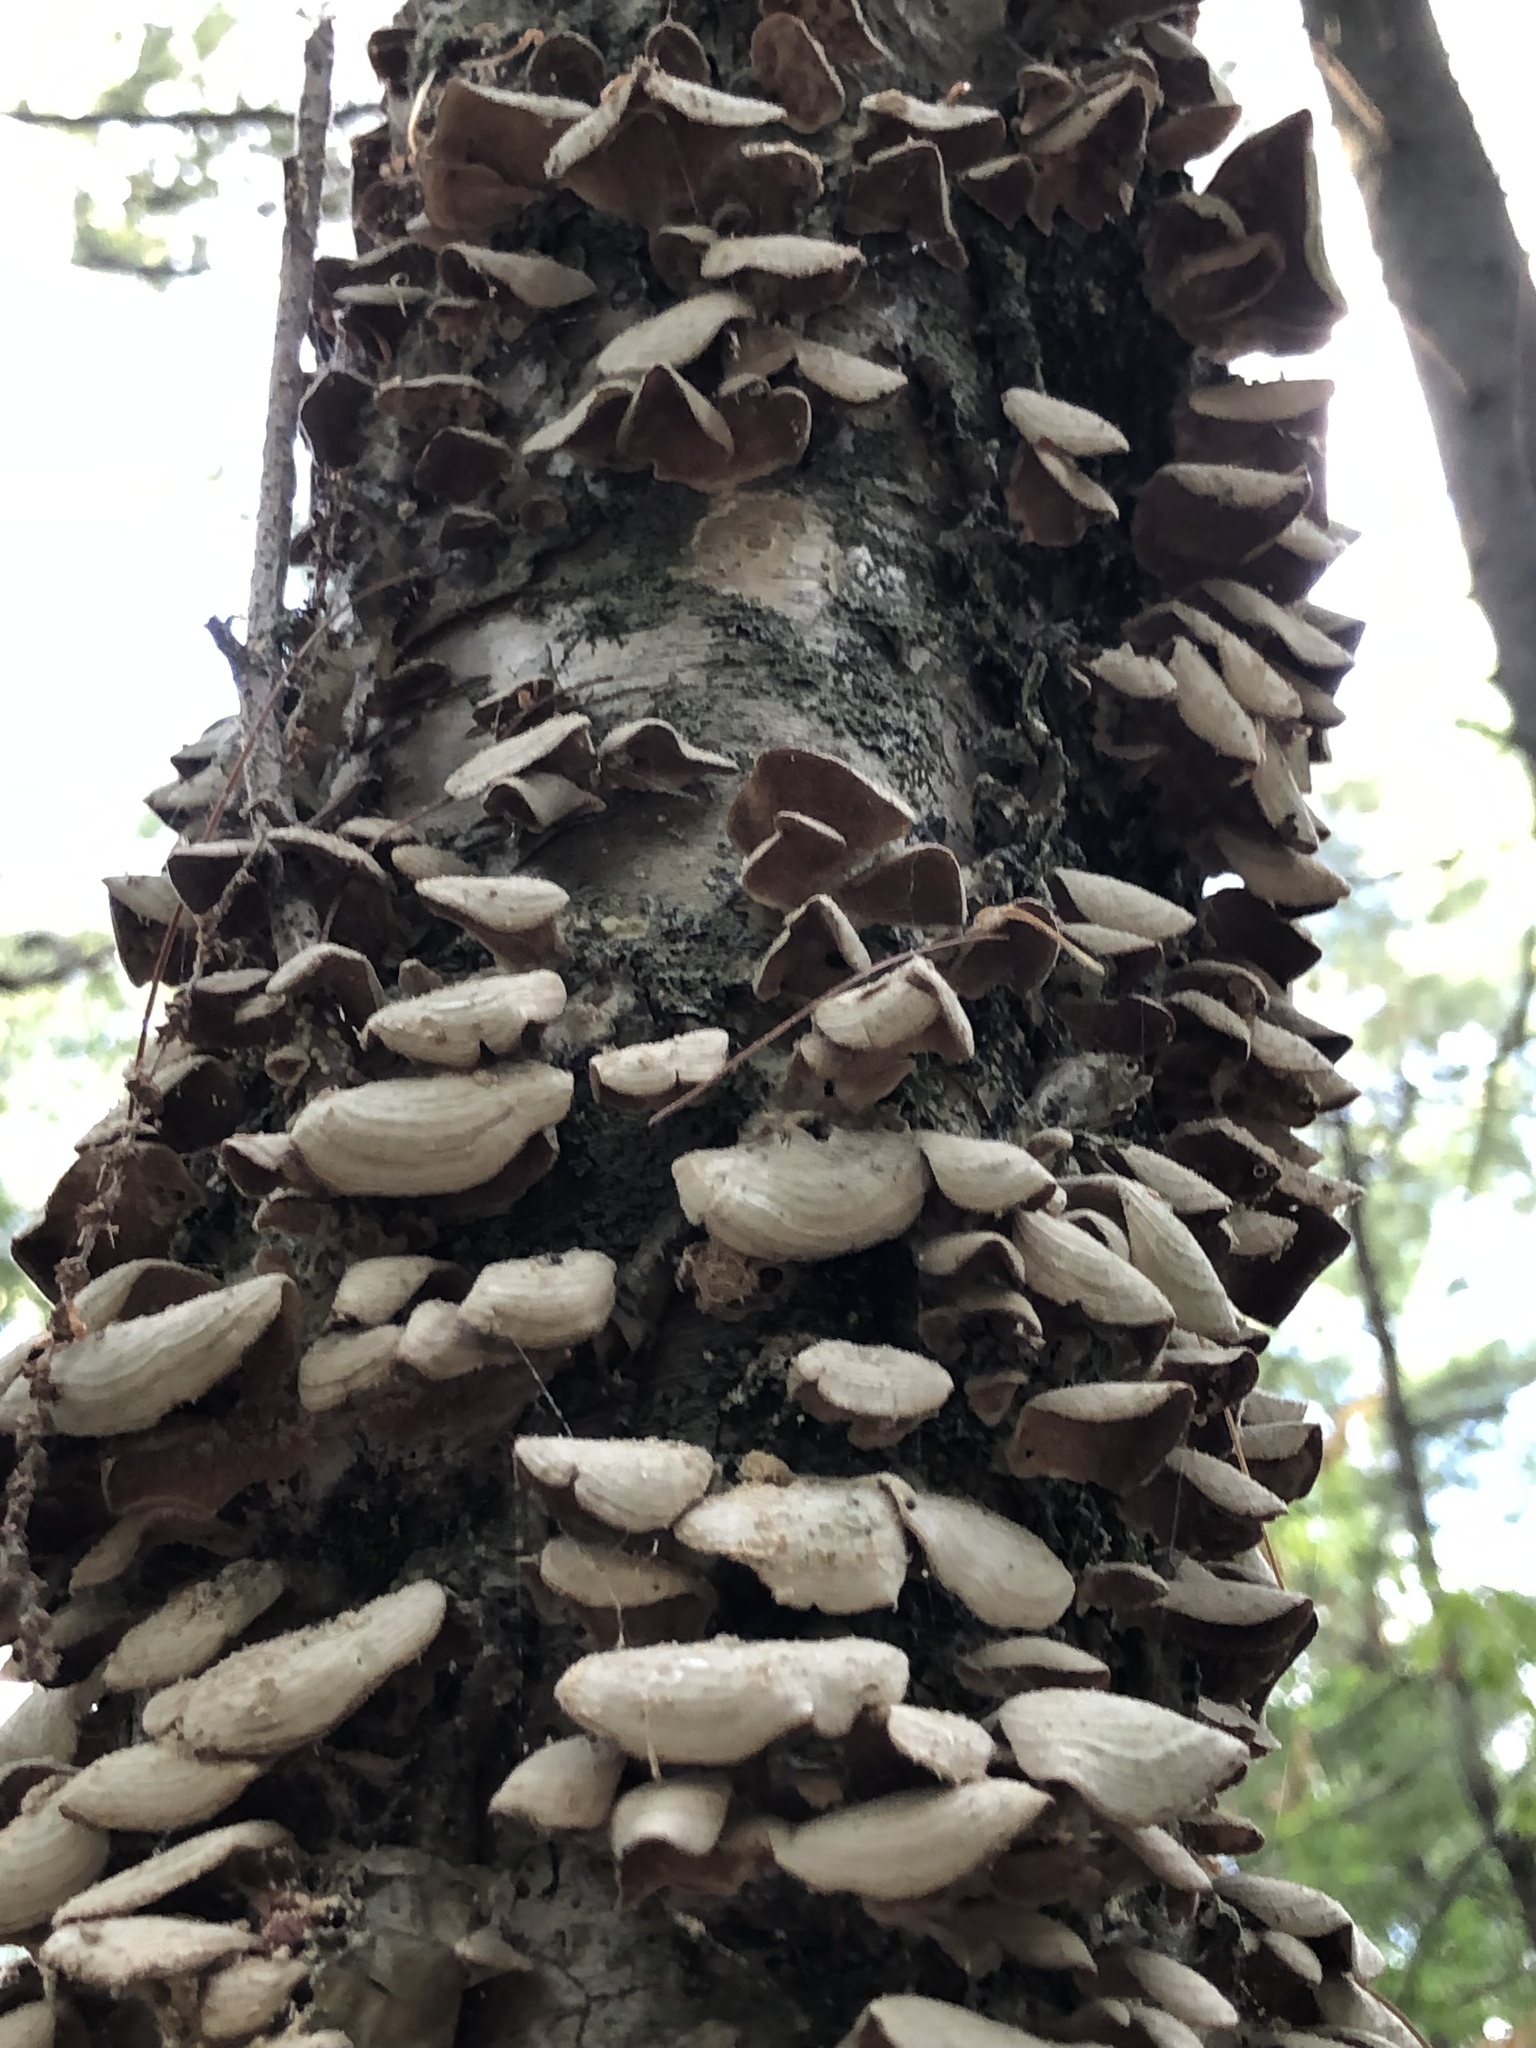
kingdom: Fungi
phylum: Basidiomycota
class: Agaricomycetes
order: Hymenochaetales
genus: Trichaptum
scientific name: Trichaptum biforme
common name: Violet-toothed polypore
